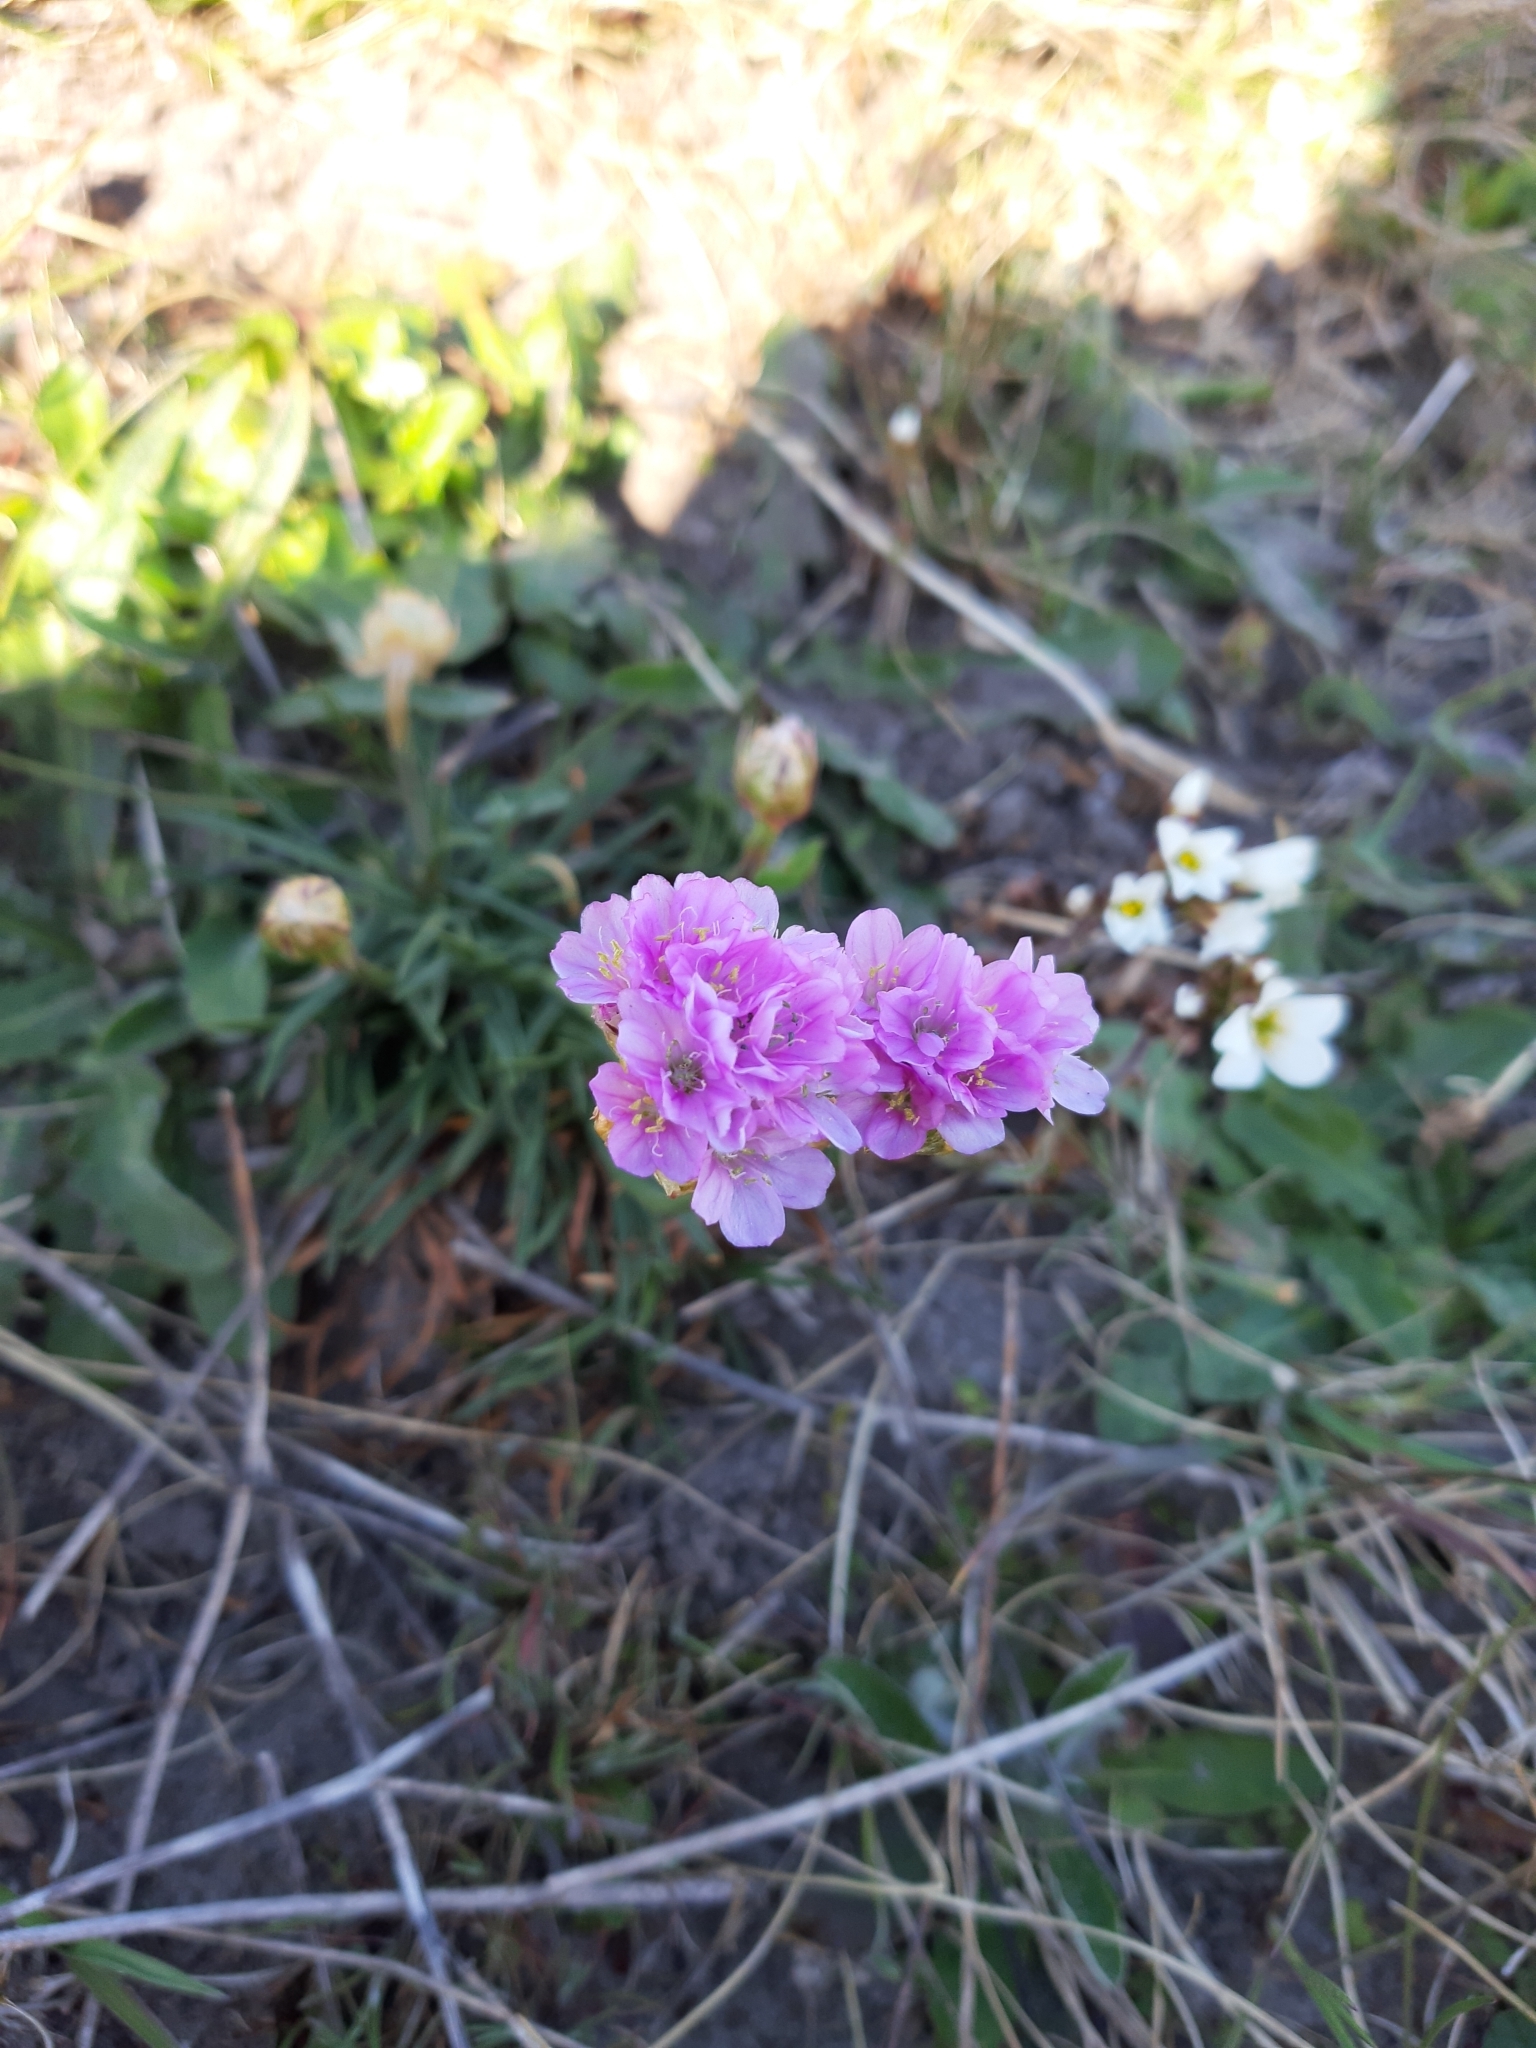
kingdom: Plantae
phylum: Tracheophyta
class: Magnoliopsida
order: Caryophyllales
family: Plumbaginaceae
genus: Armeria
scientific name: Armeria maritima
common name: Thrift
